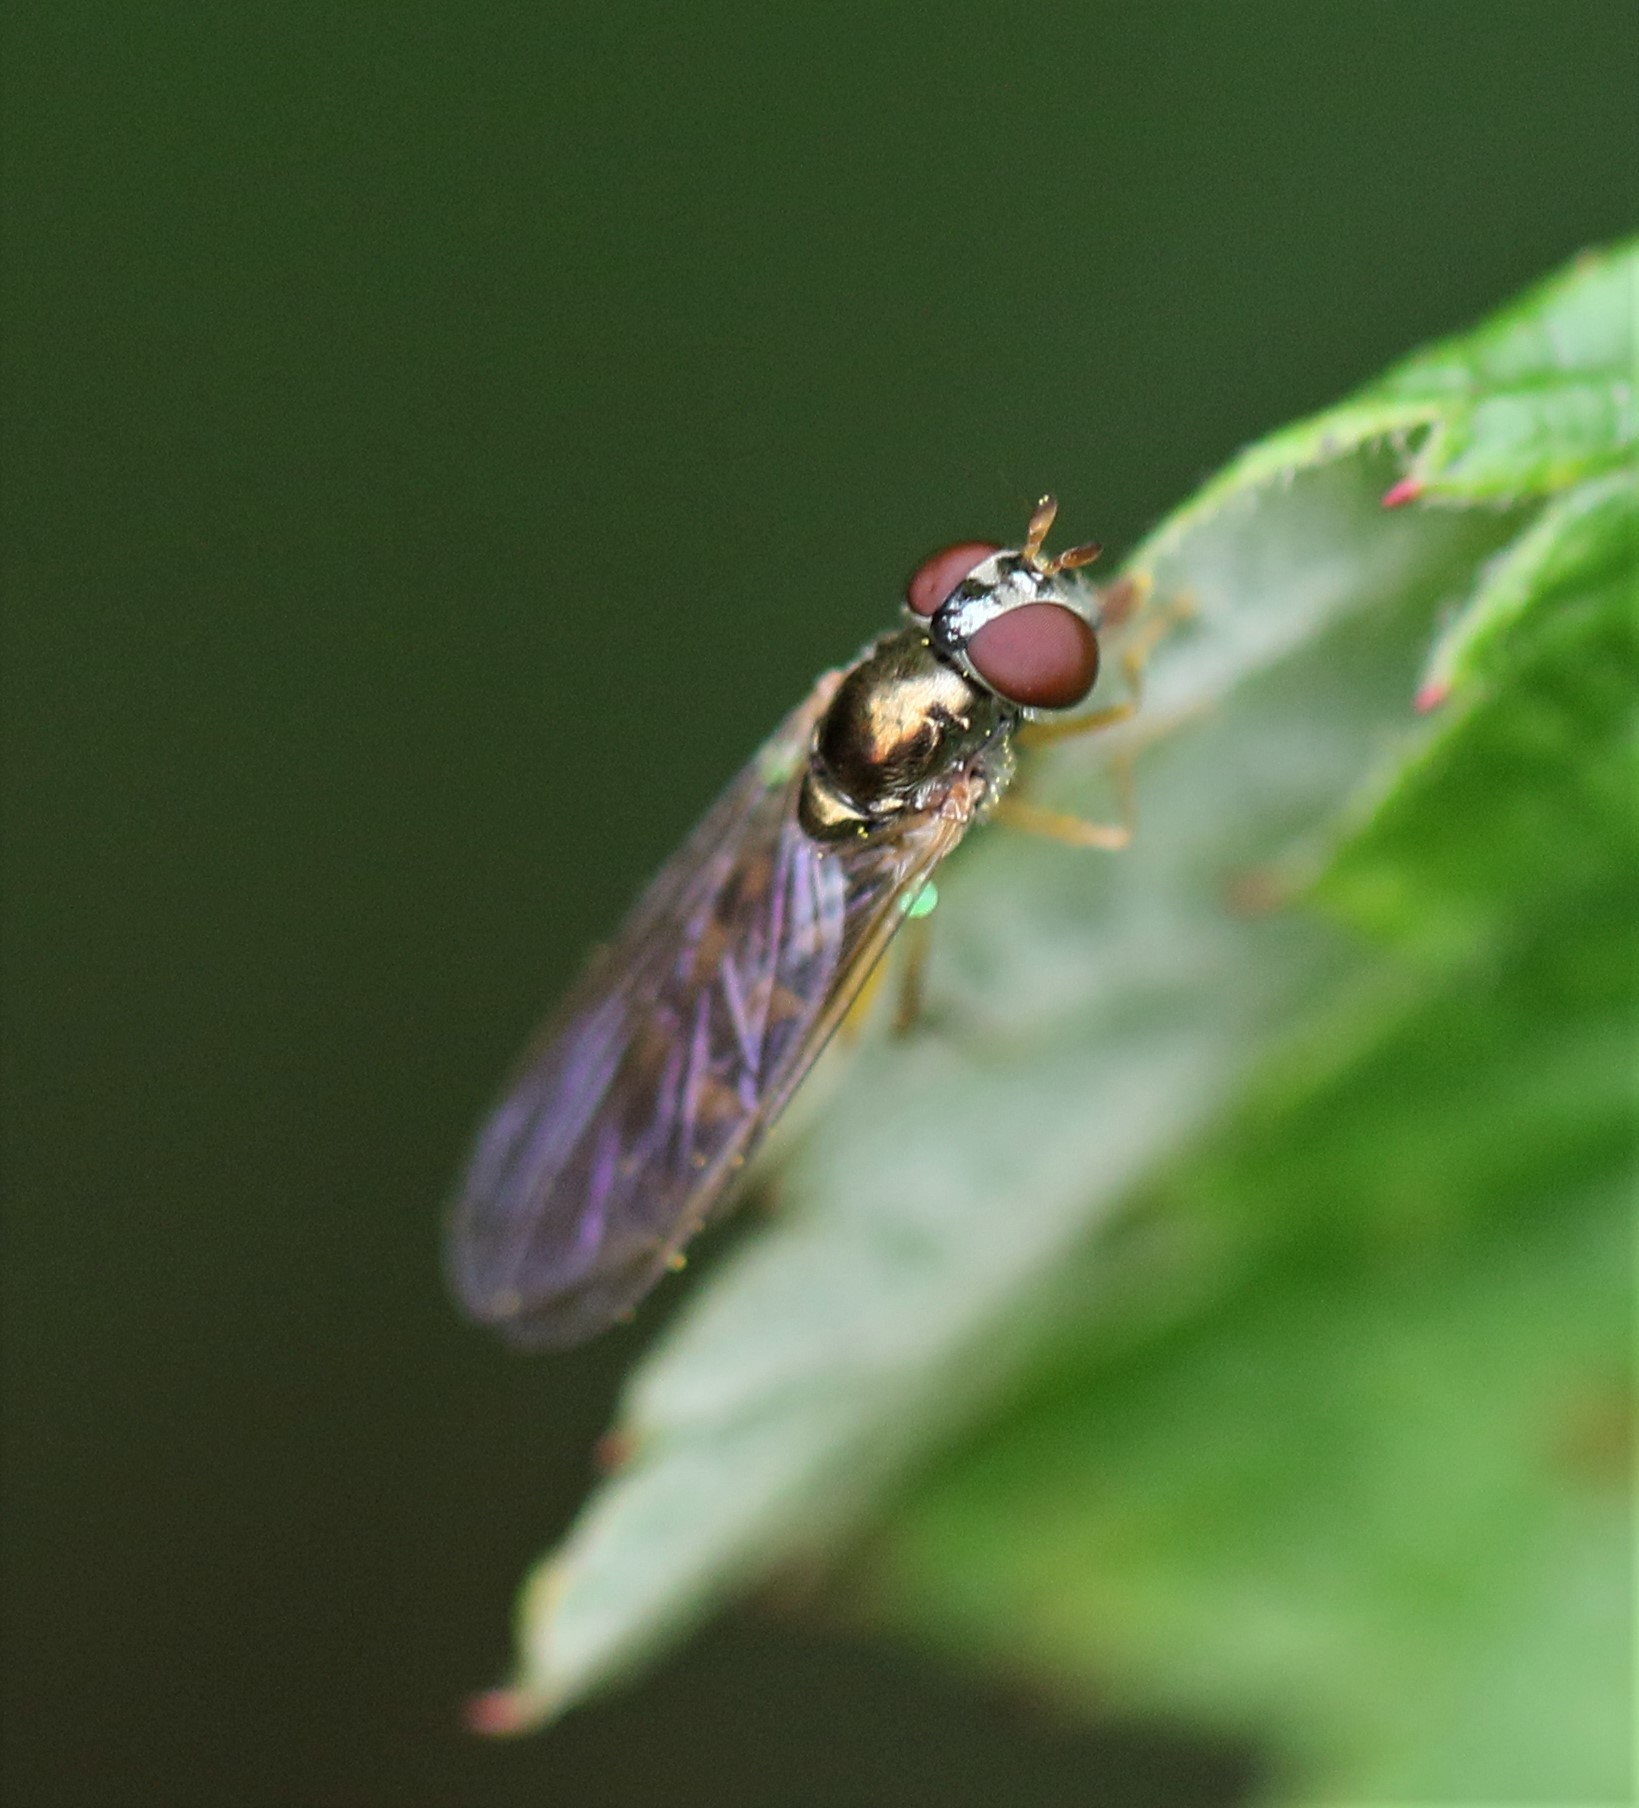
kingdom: Animalia
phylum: Arthropoda
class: Insecta
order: Diptera
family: Syrphidae
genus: Melanostoma
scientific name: Melanostoma mellina
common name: Hover fly
